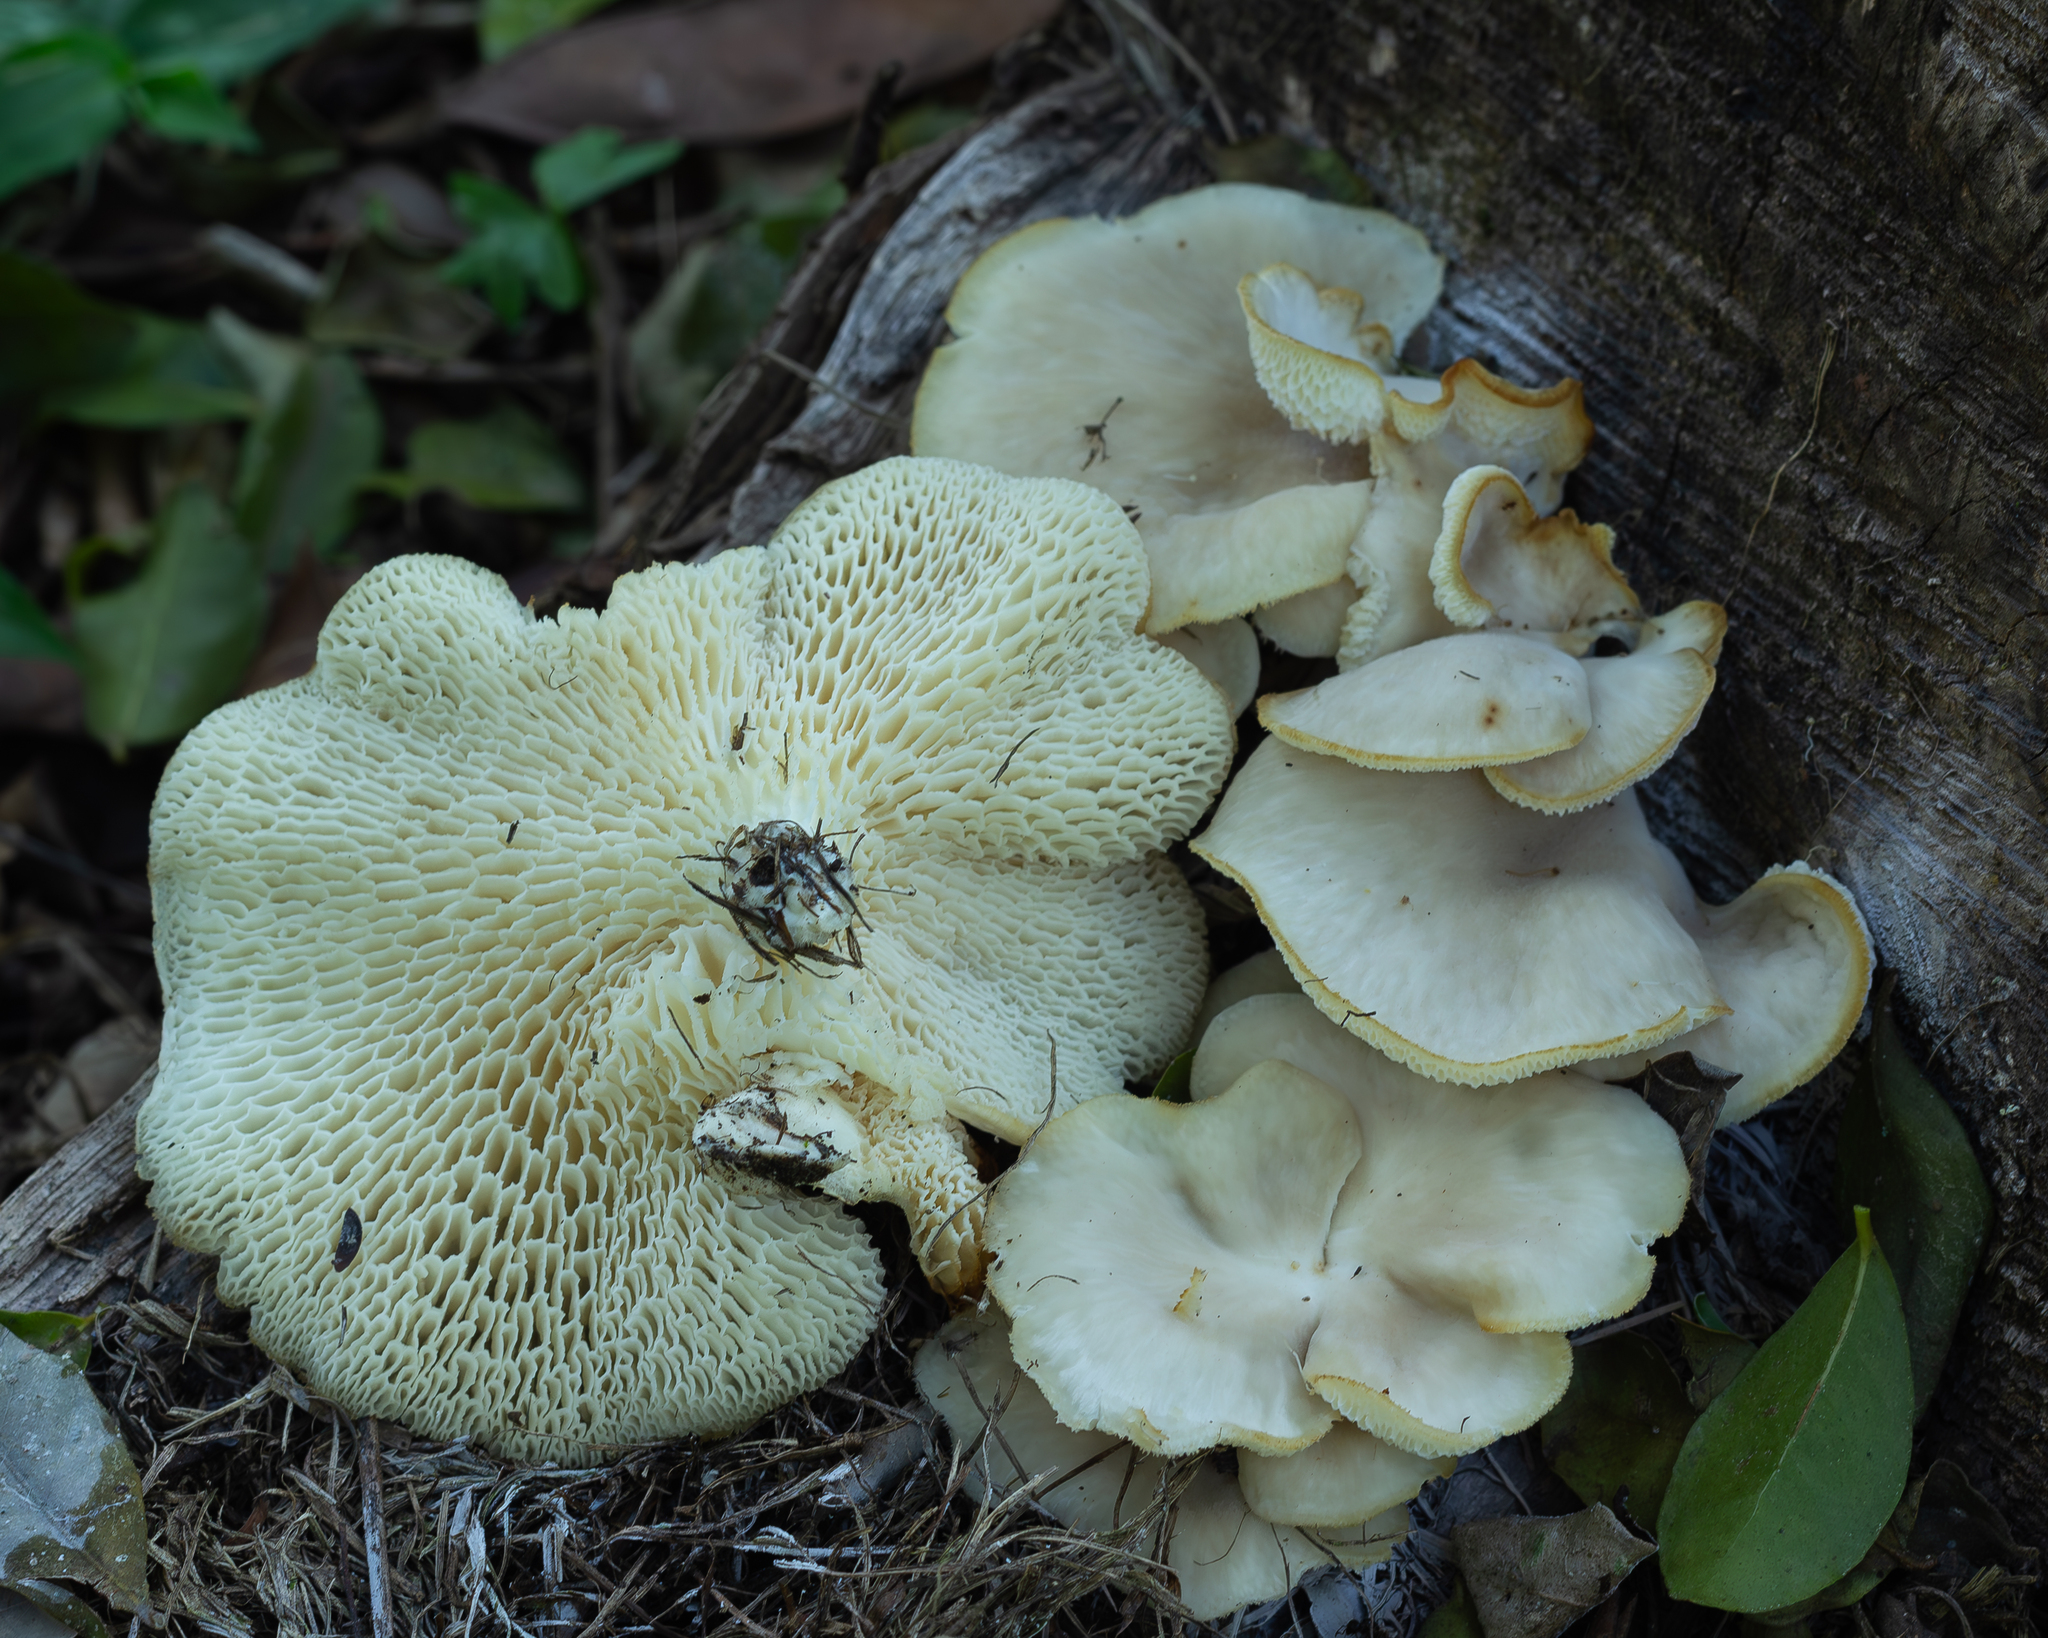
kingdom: Fungi
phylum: Basidiomycota
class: Agaricomycetes
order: Polyporales
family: Polyporaceae
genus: Favolus
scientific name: Favolus rugulosus
